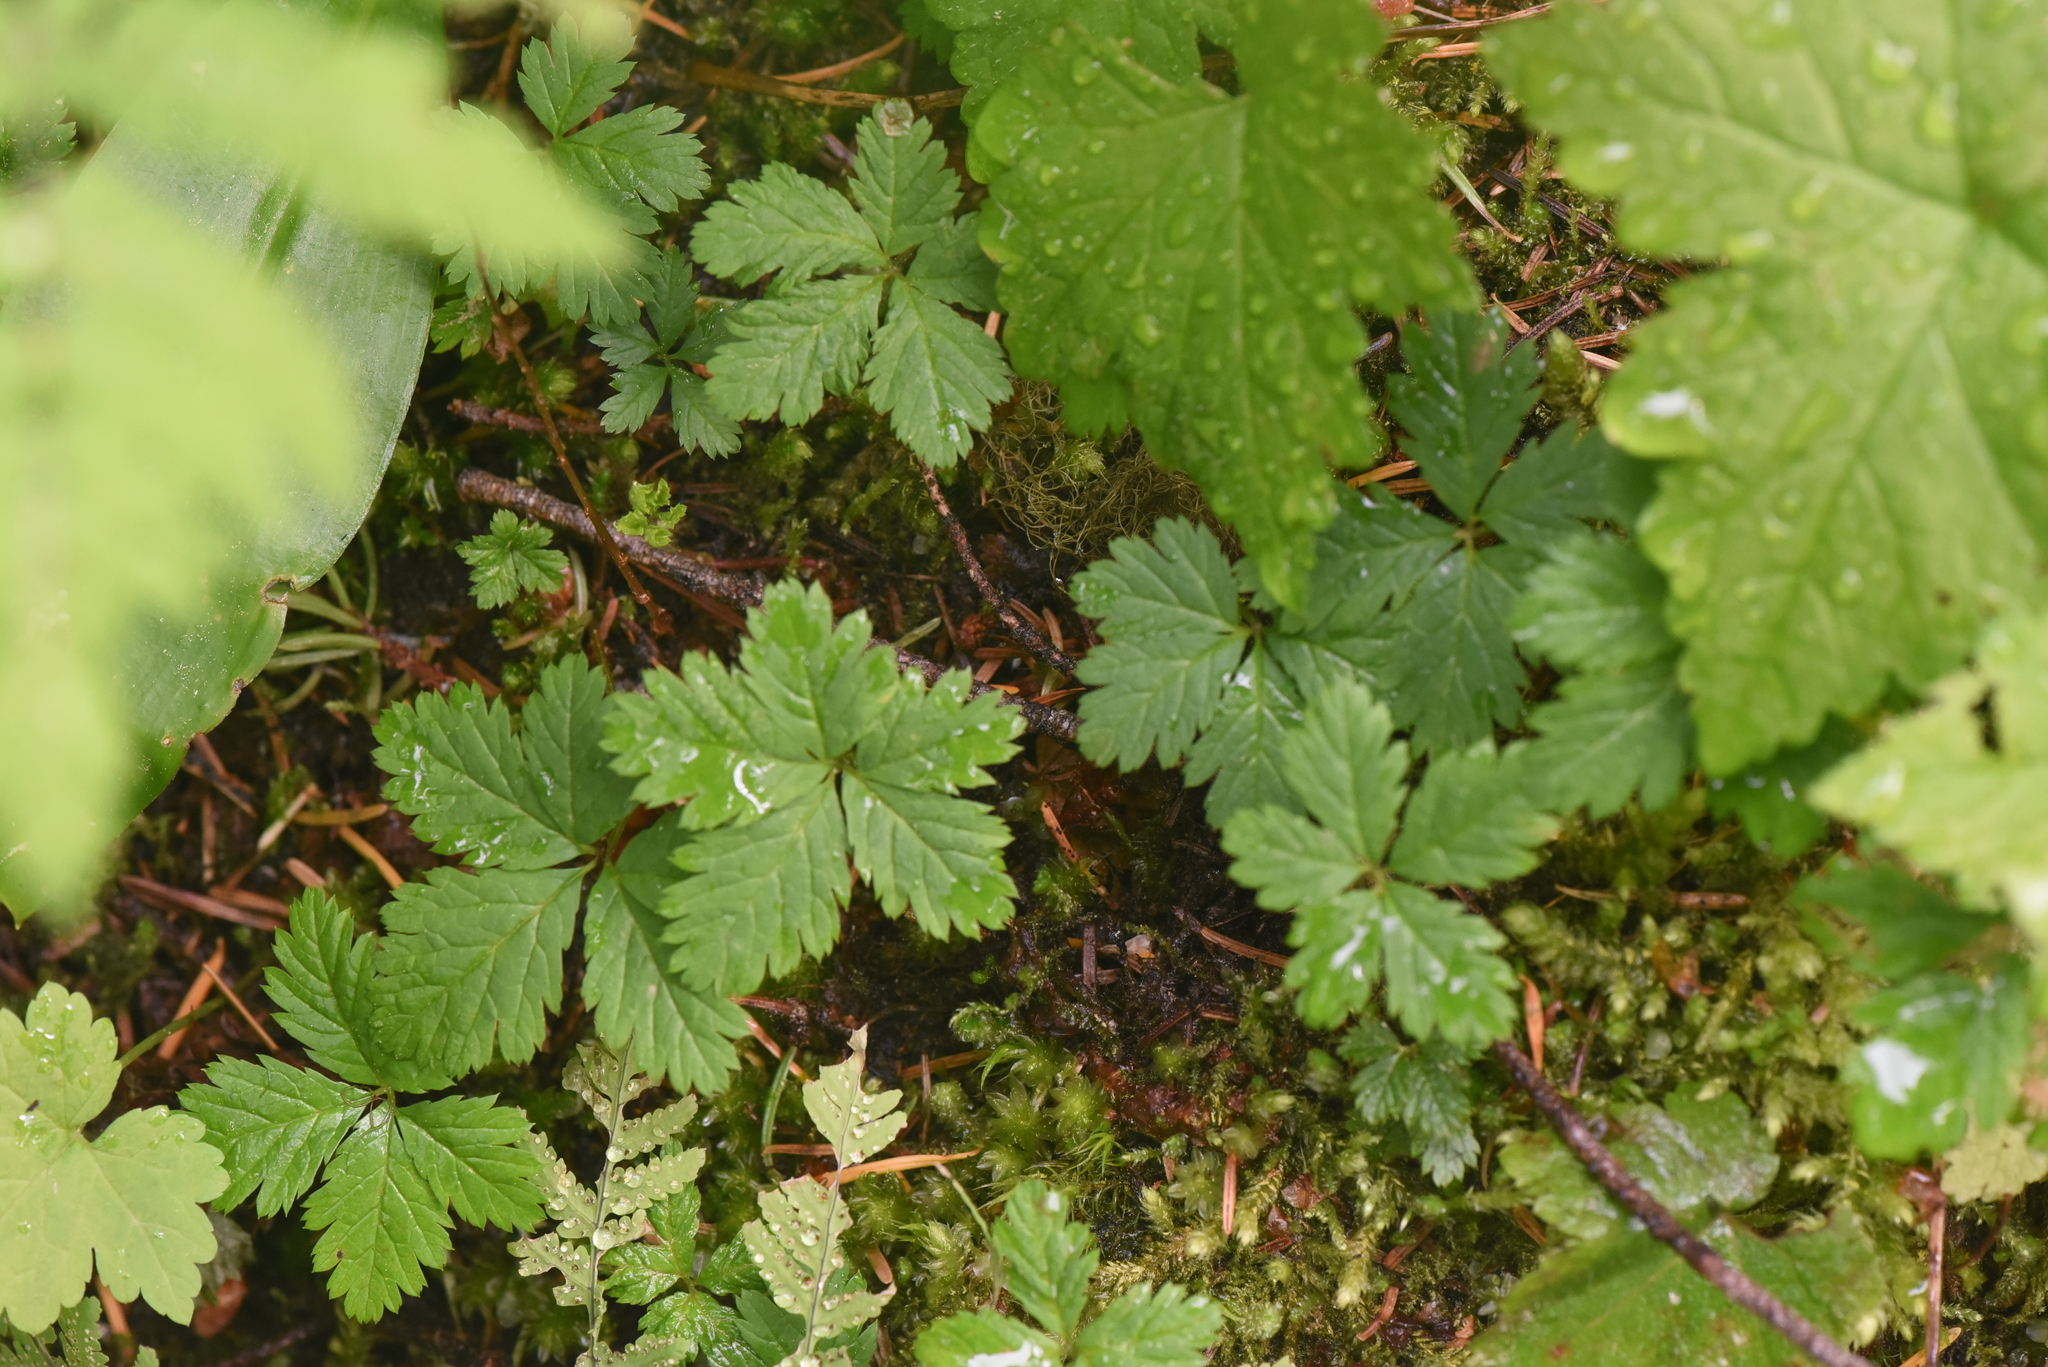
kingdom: Plantae
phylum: Tracheophyta
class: Magnoliopsida
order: Rosales
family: Rosaceae
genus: Rubus
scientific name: Rubus pedatus
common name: Creeping raspberry
